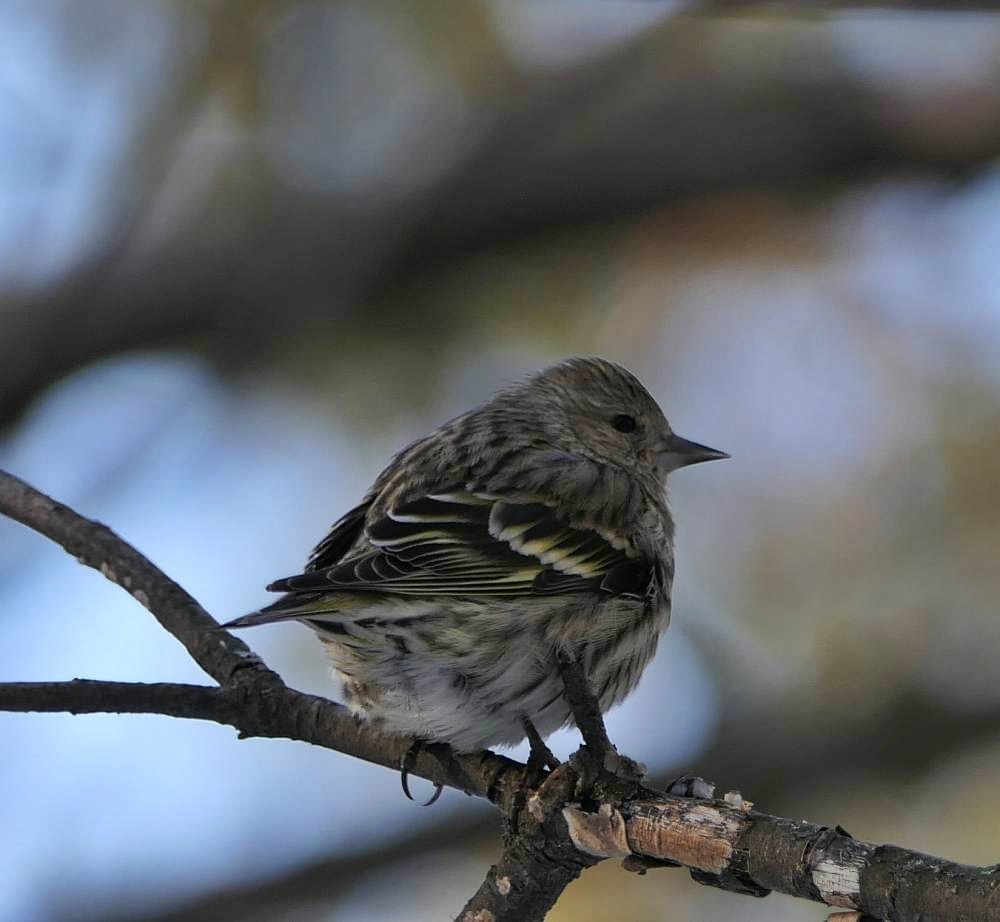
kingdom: Animalia
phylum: Chordata
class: Aves
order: Passeriformes
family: Fringillidae
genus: Spinus
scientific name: Spinus pinus
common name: Pine siskin
